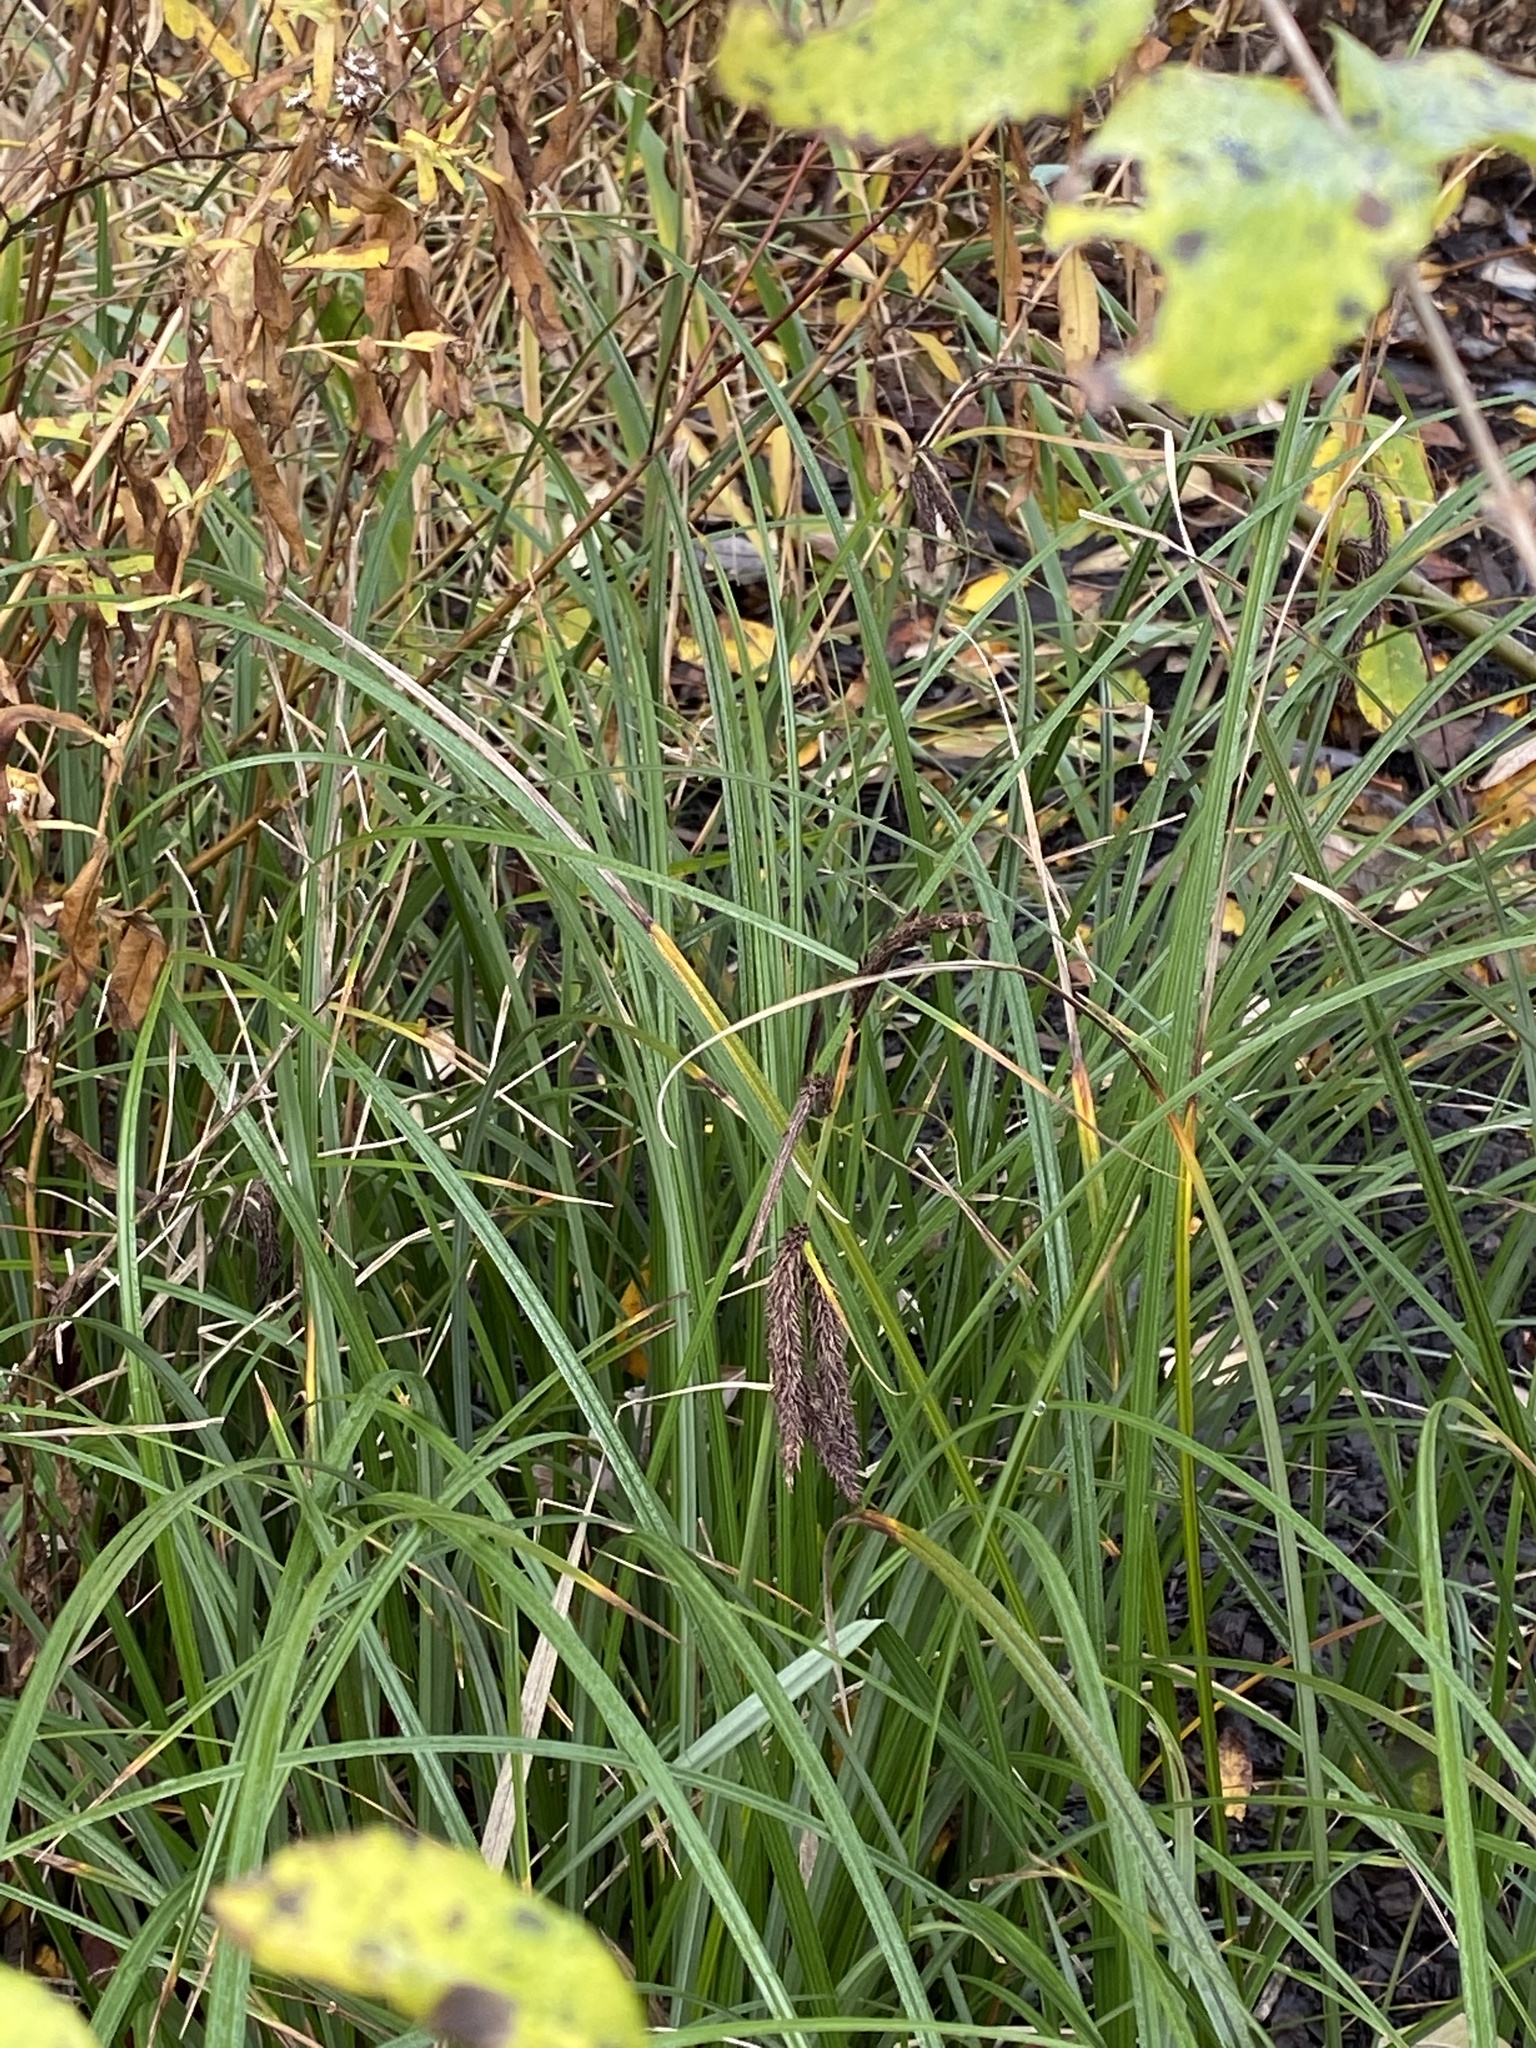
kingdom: Plantae
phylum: Tracheophyta
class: Liliopsida
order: Poales
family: Cyperaceae
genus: Carex
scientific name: Carex obnupta
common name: Slough sedge
